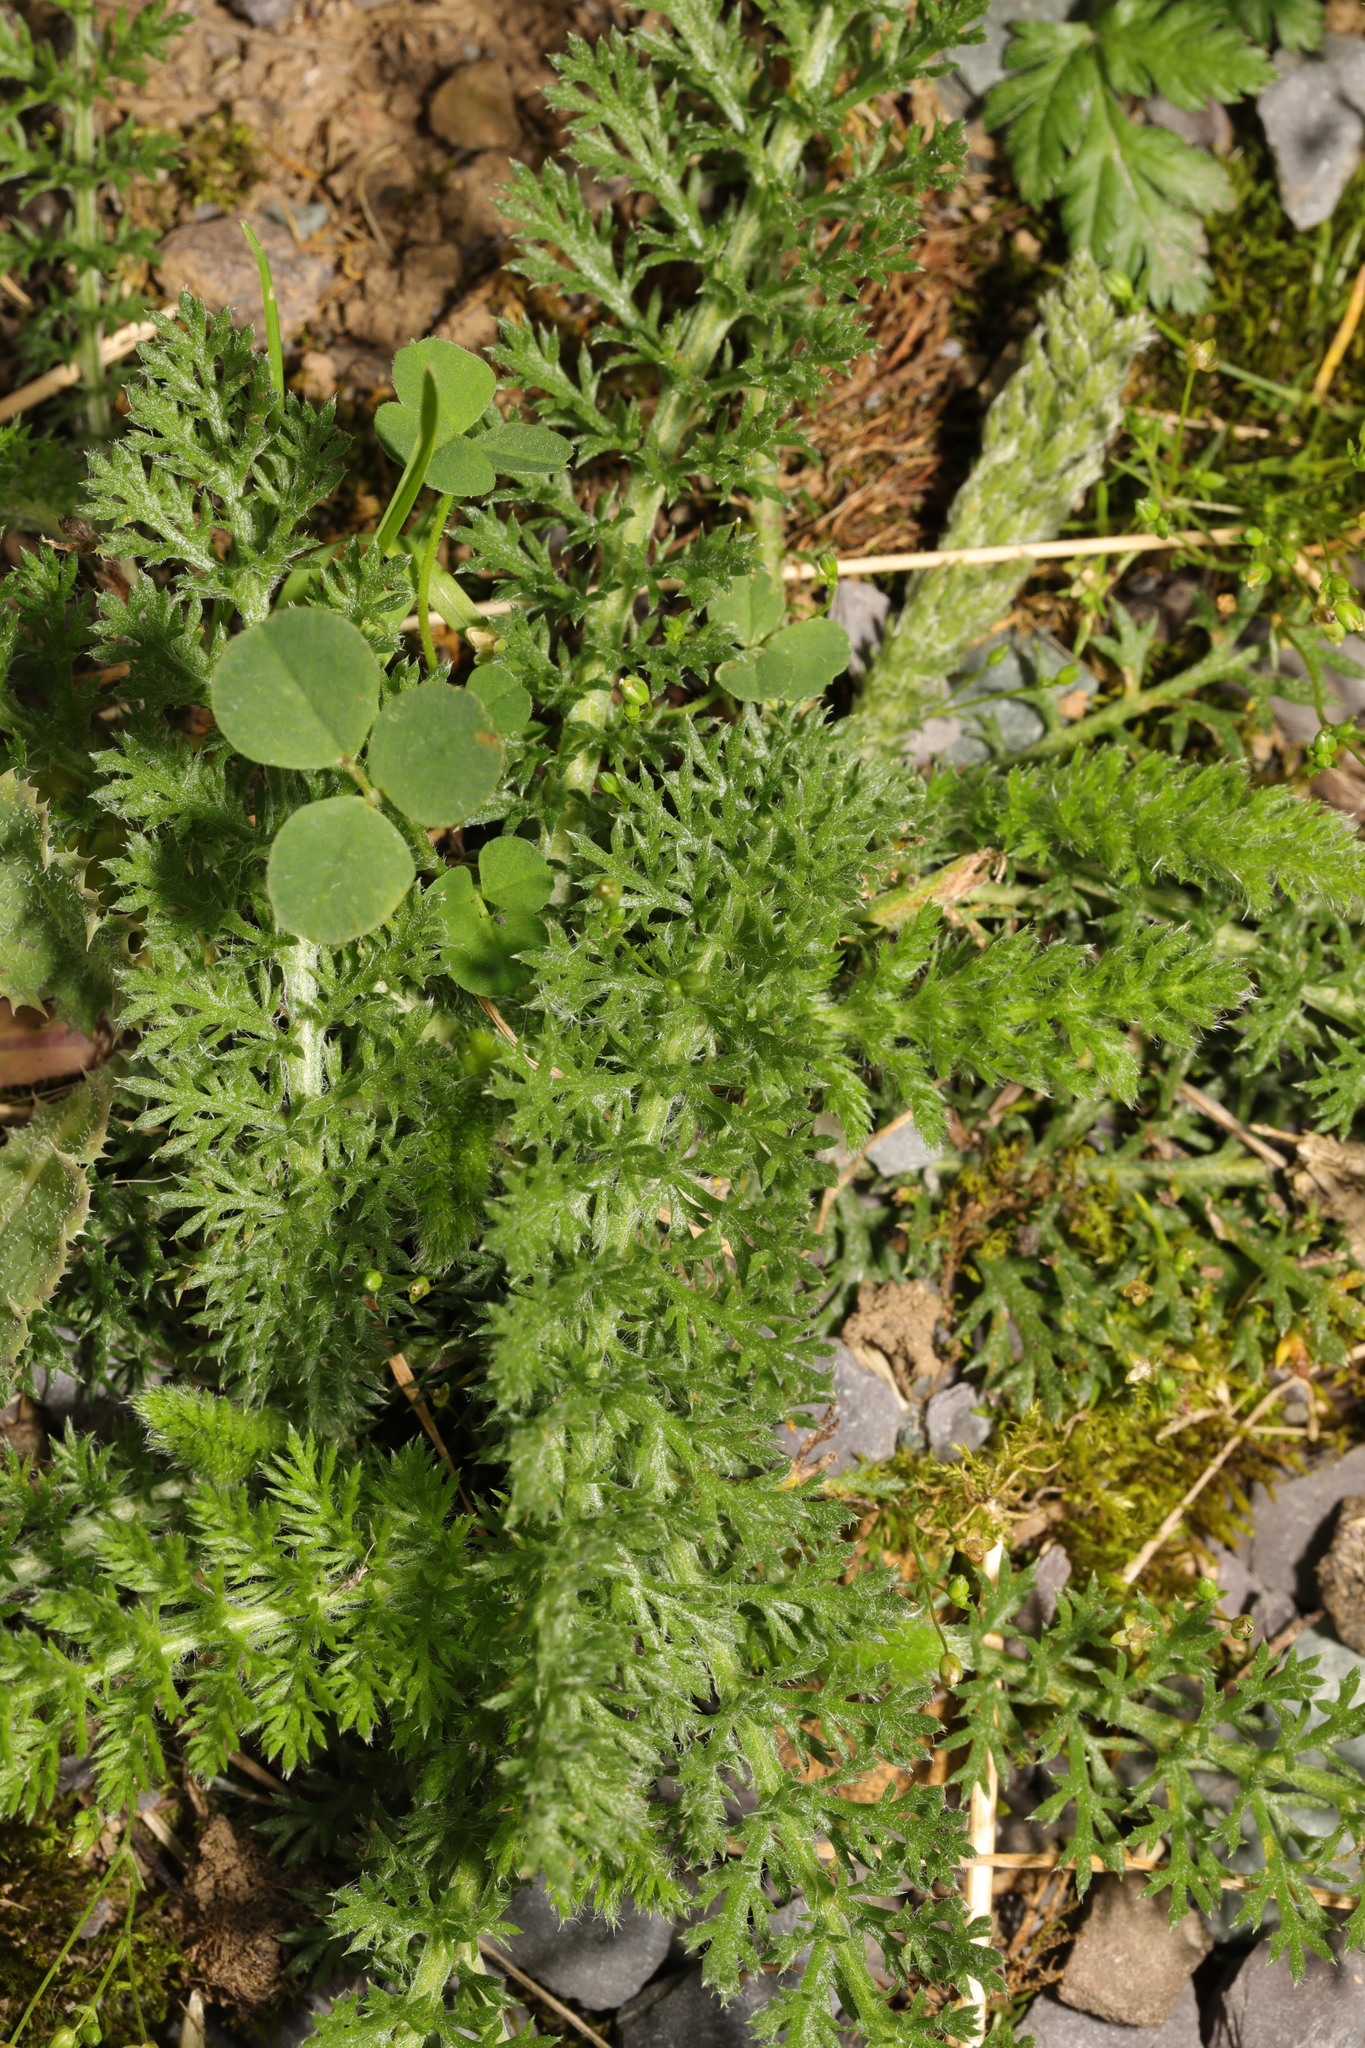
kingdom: Plantae
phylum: Tracheophyta
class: Magnoliopsida
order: Asterales
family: Asteraceae
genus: Achillea
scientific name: Achillea millefolium
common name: Yarrow
